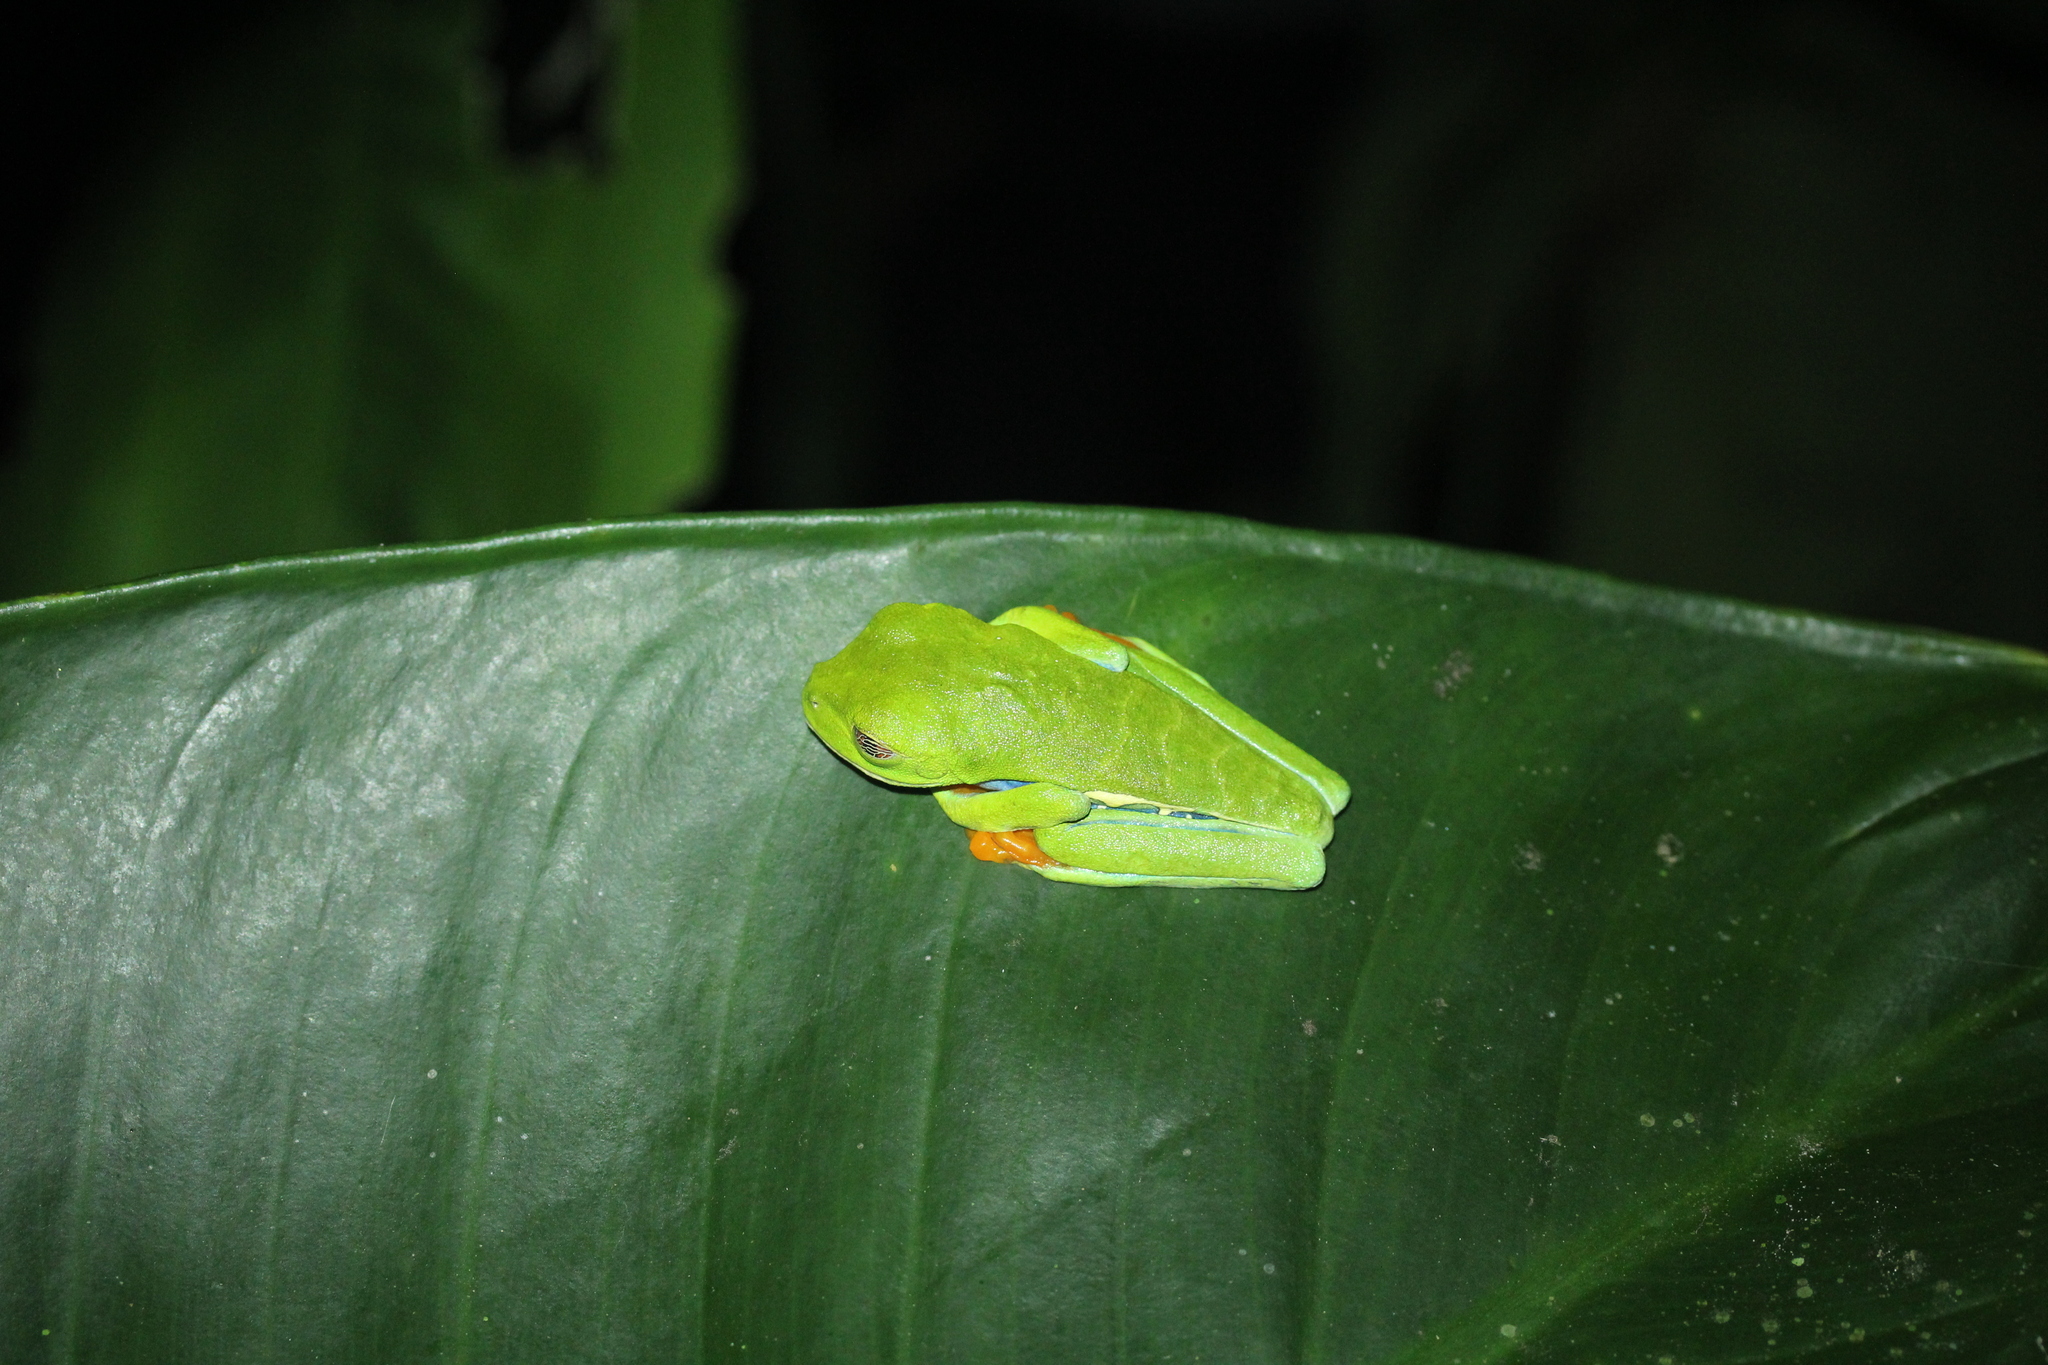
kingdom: Animalia
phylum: Chordata
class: Amphibia
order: Anura
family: Phyllomedusidae
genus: Agalychnis
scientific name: Agalychnis callidryas
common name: Red-eyed treefrog
